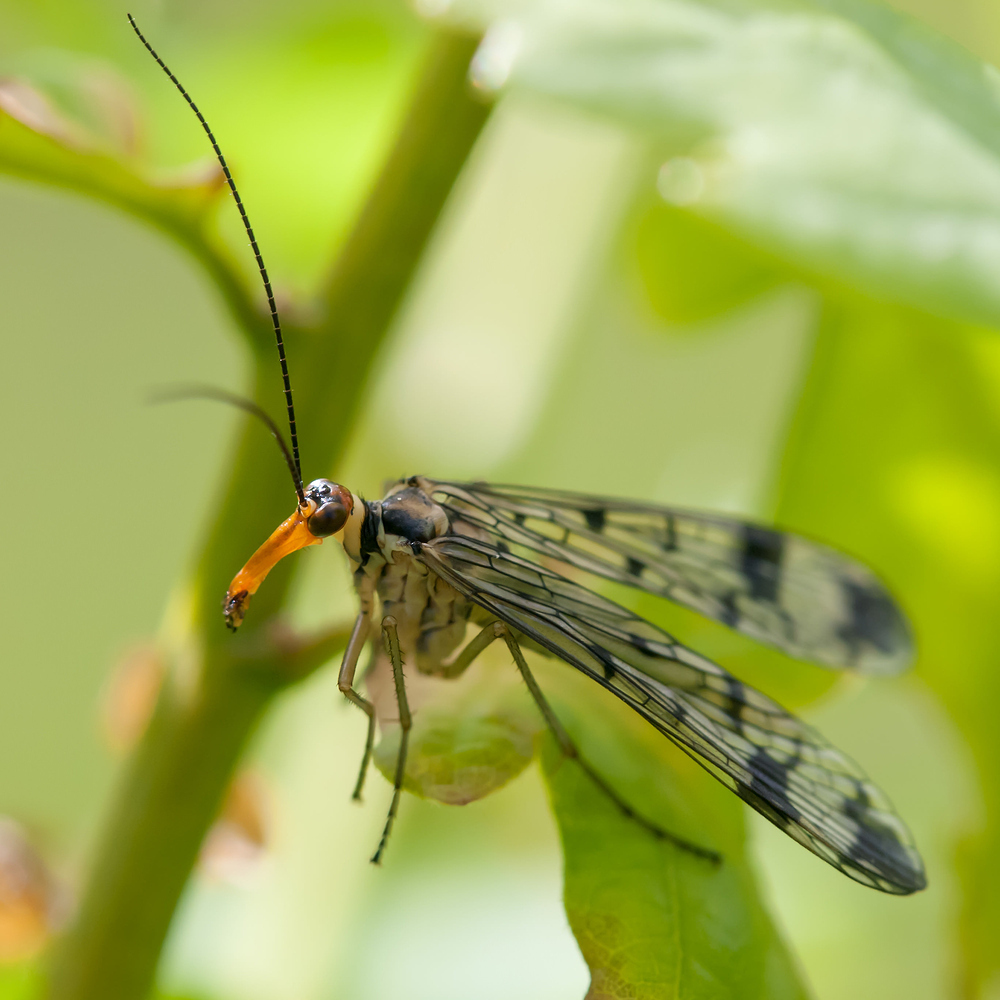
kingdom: Animalia
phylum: Arthropoda
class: Insecta
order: Mecoptera
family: Panorpidae
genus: Panorpa
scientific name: Panorpa communis
